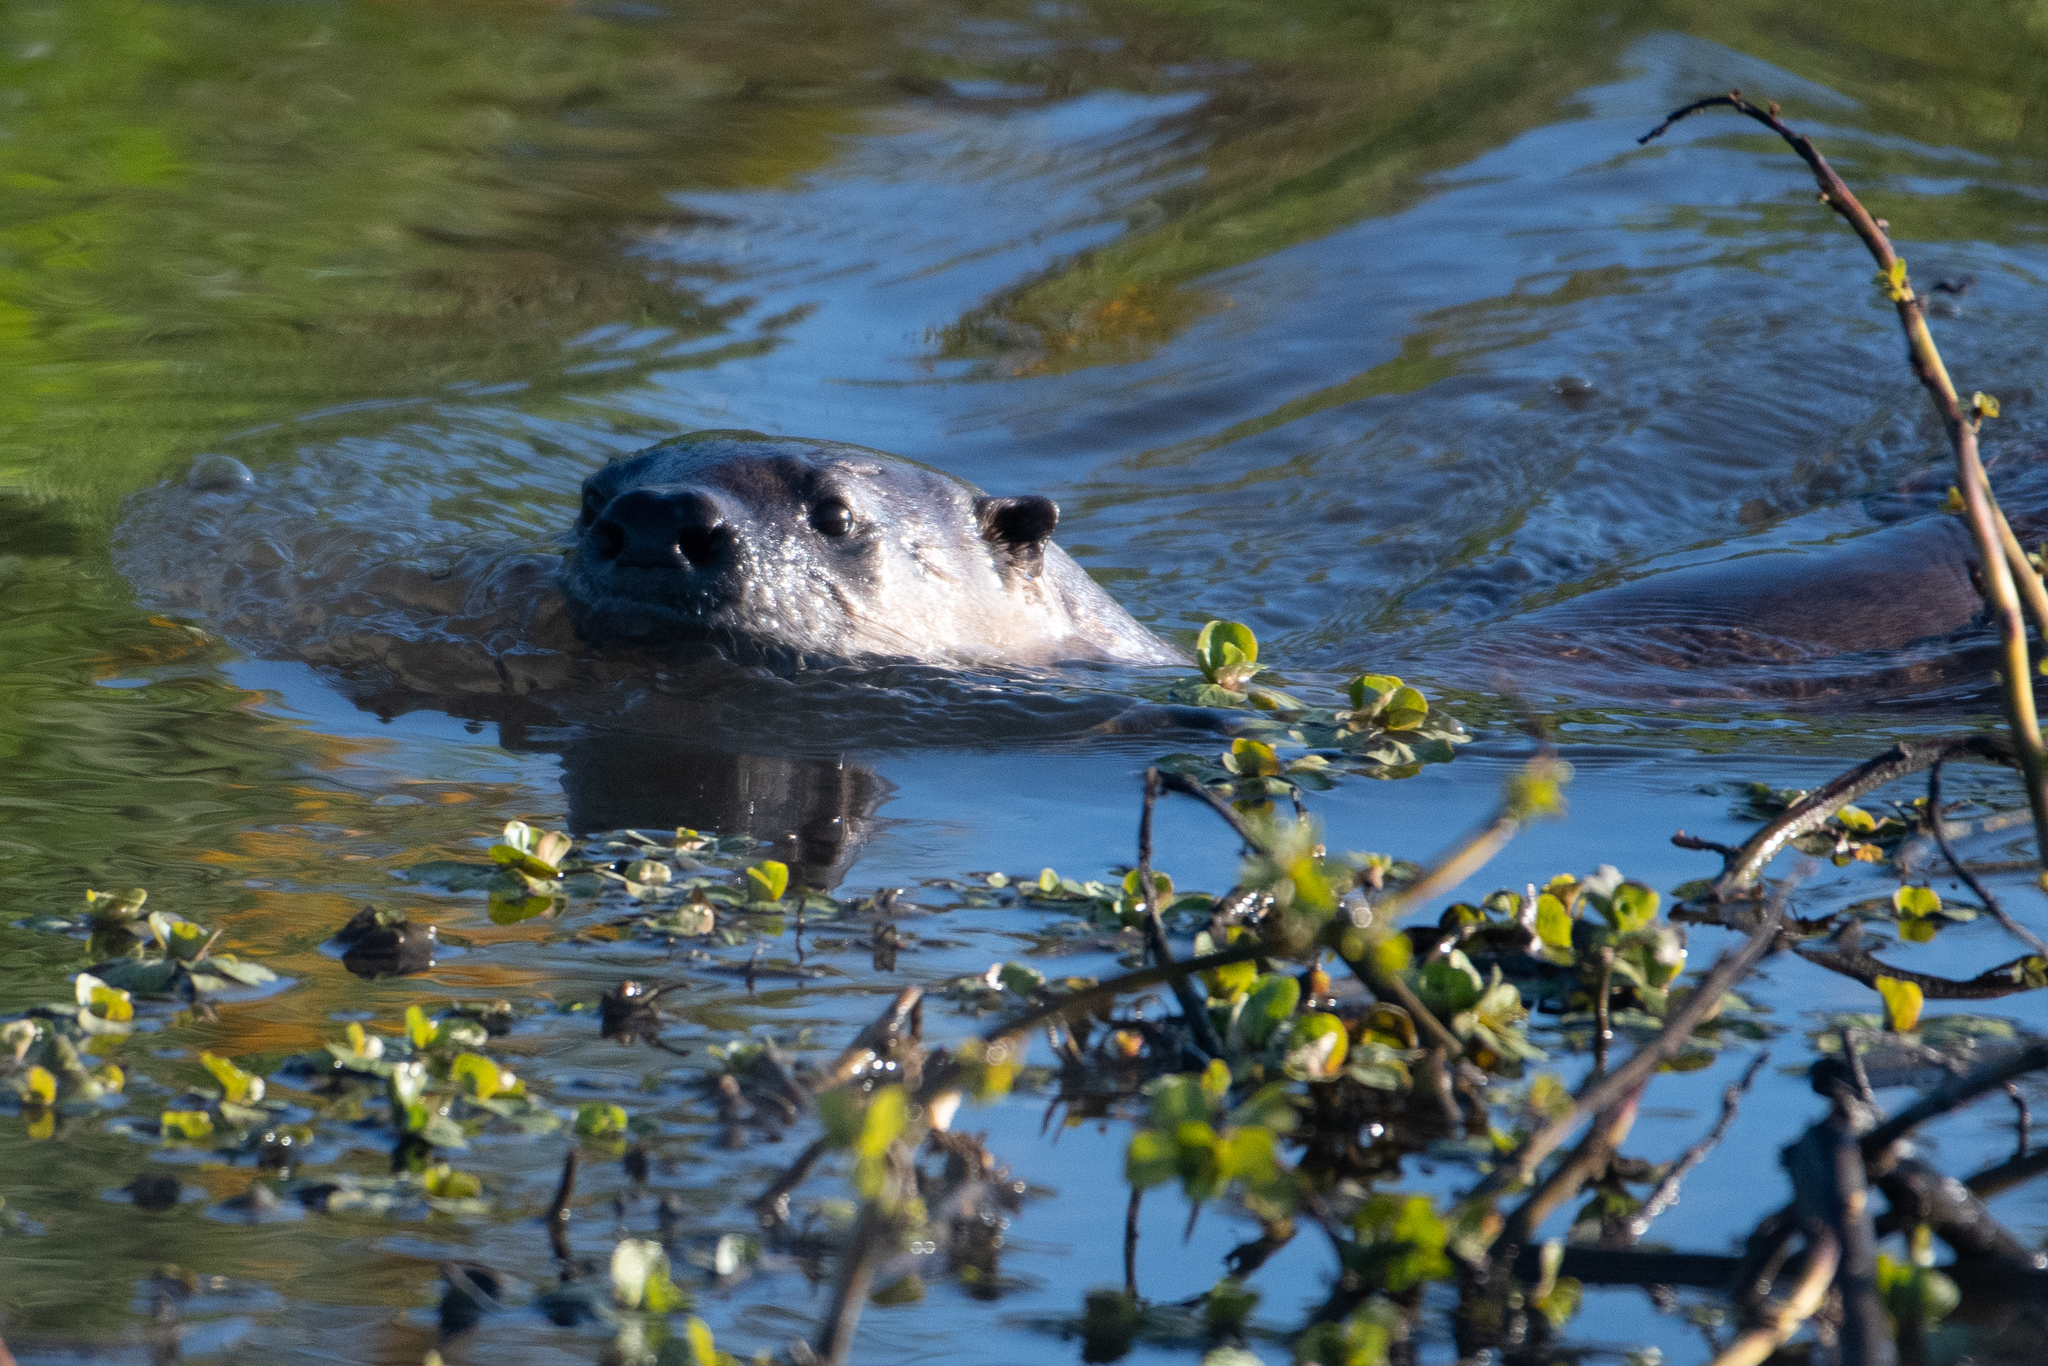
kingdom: Animalia
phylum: Chordata
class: Mammalia
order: Carnivora
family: Mustelidae
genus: Lontra
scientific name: Lontra canadensis
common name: North american river otter
